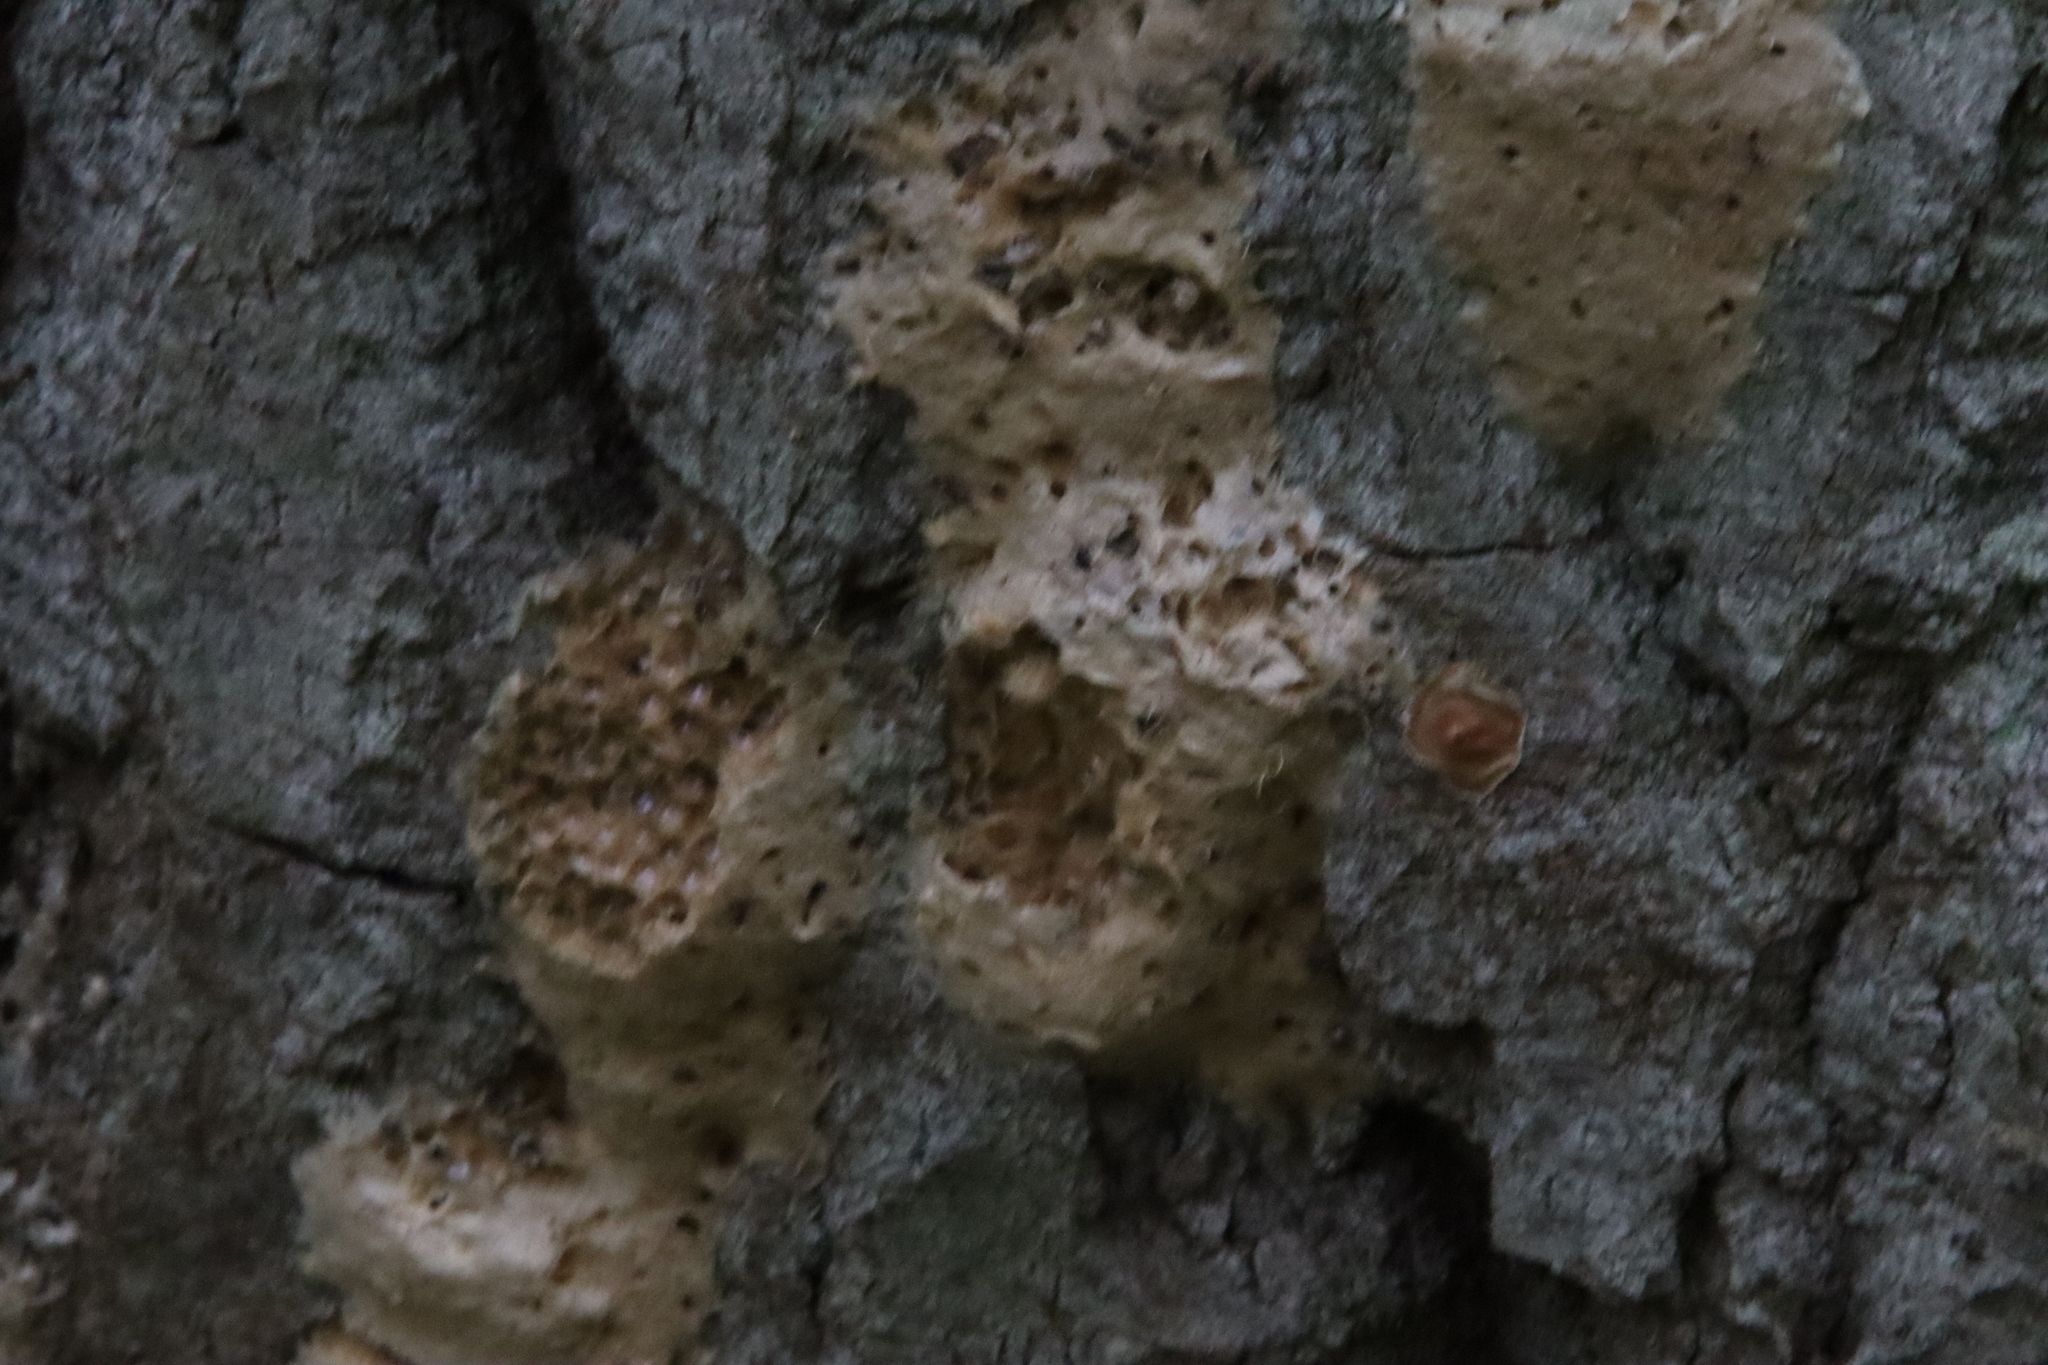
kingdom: Animalia
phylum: Arthropoda
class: Insecta
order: Lepidoptera
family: Erebidae
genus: Lymantria
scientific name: Lymantria dispar
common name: Gypsy moth
